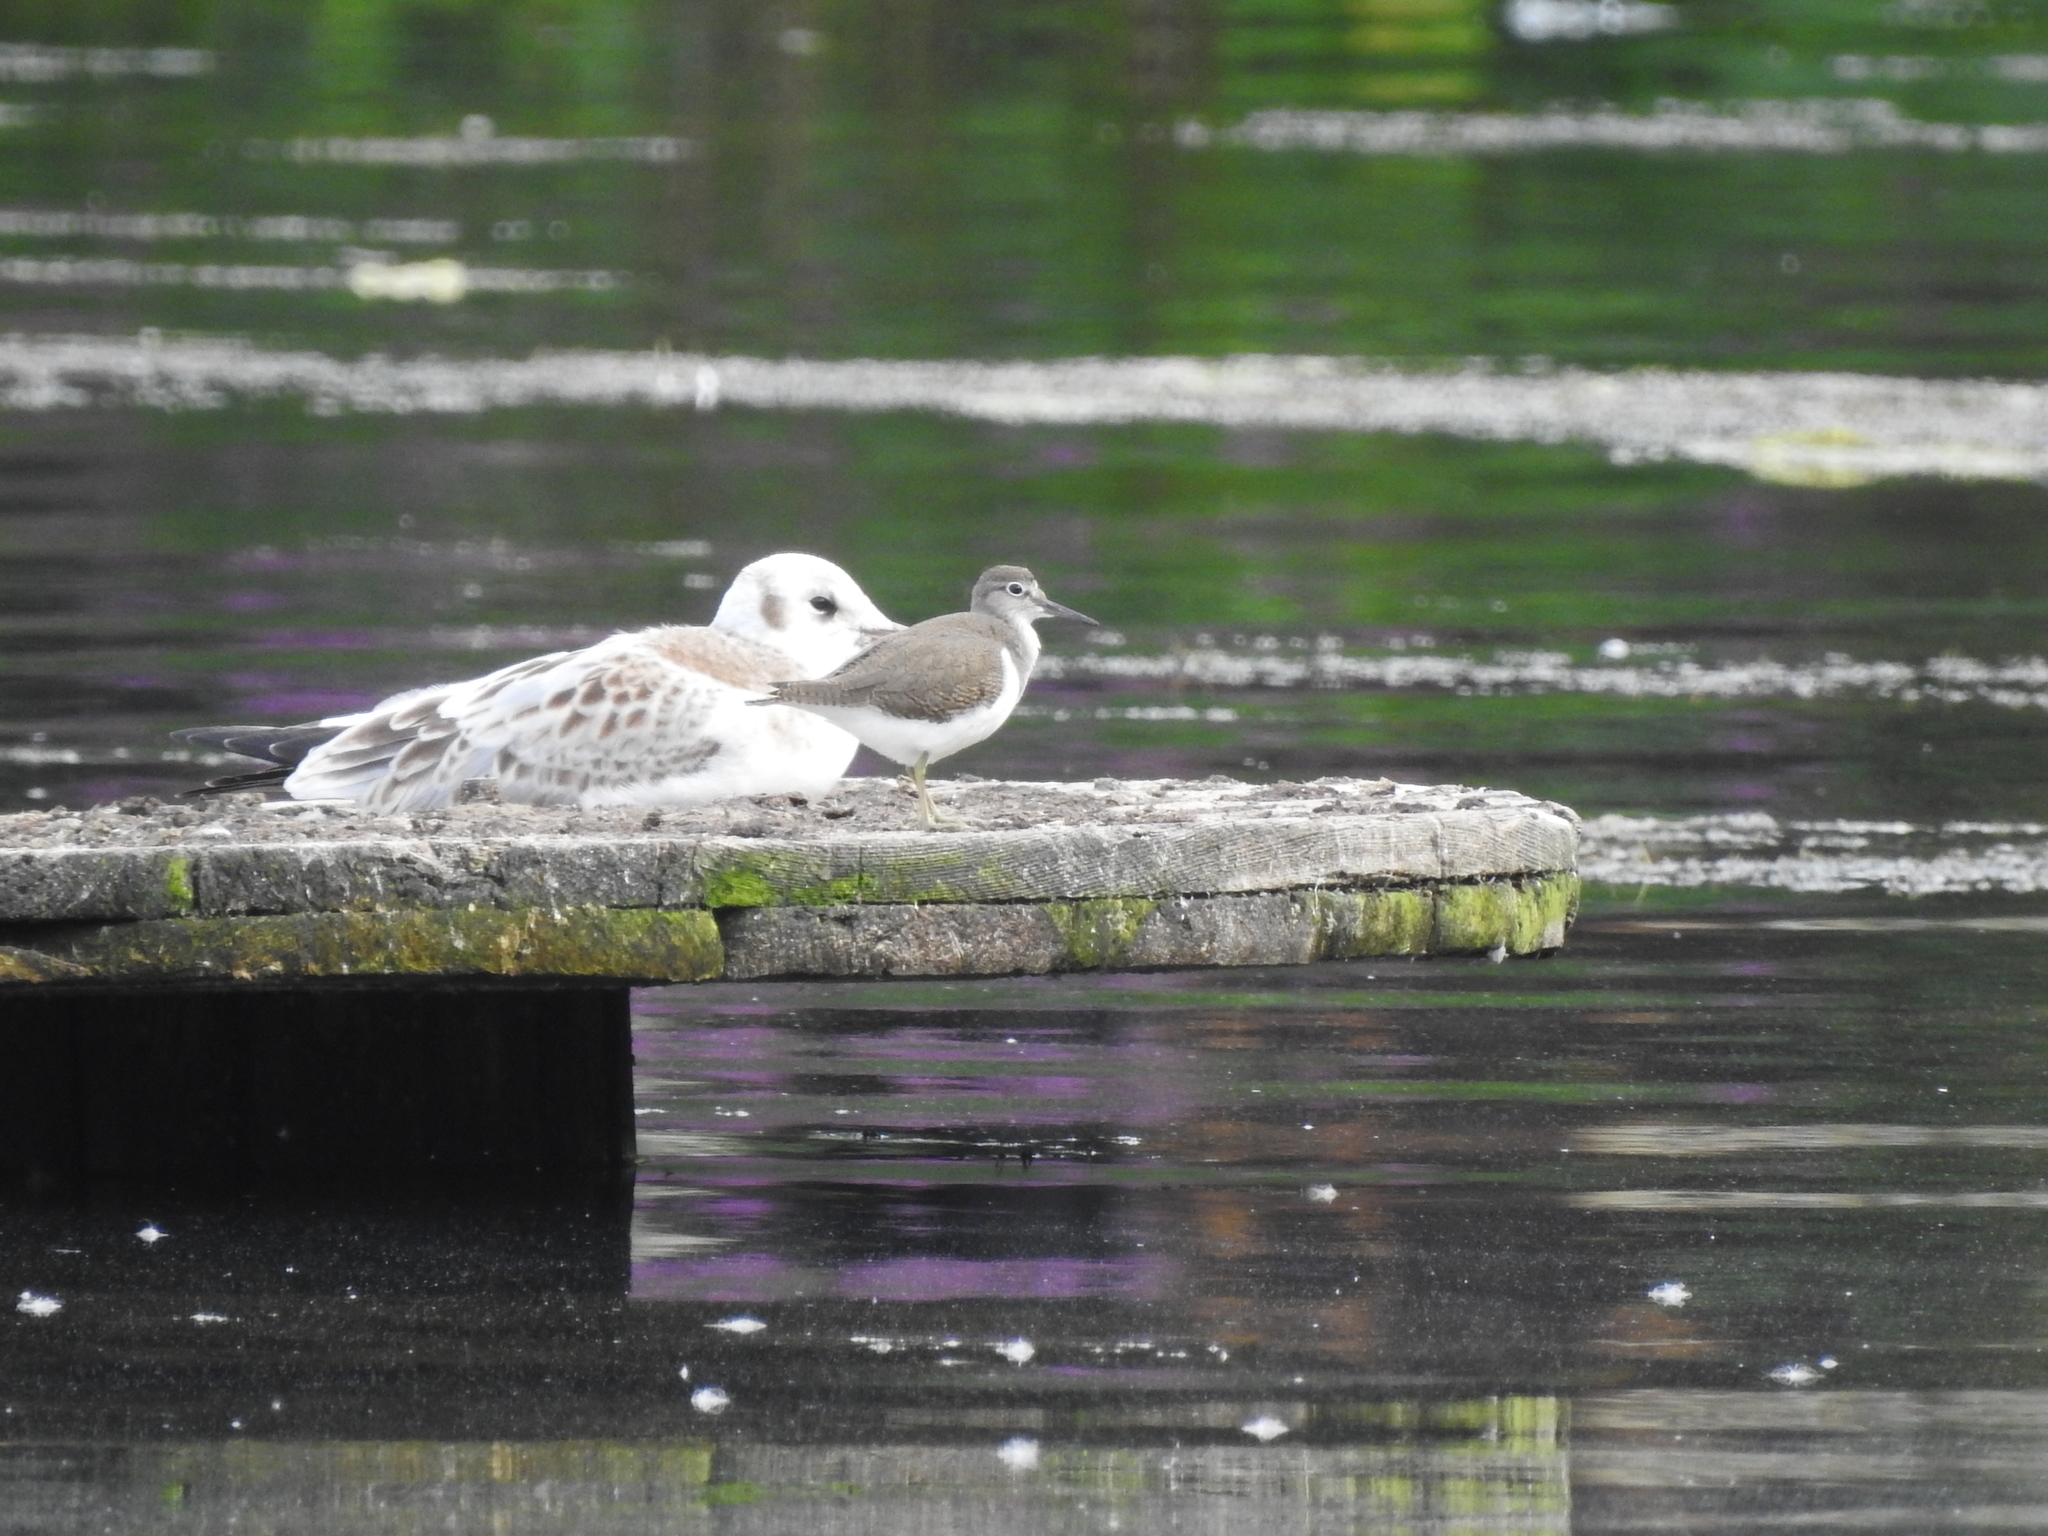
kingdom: Animalia
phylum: Chordata
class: Aves
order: Charadriiformes
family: Scolopacidae
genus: Actitis
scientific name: Actitis hypoleucos
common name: Common sandpiper
